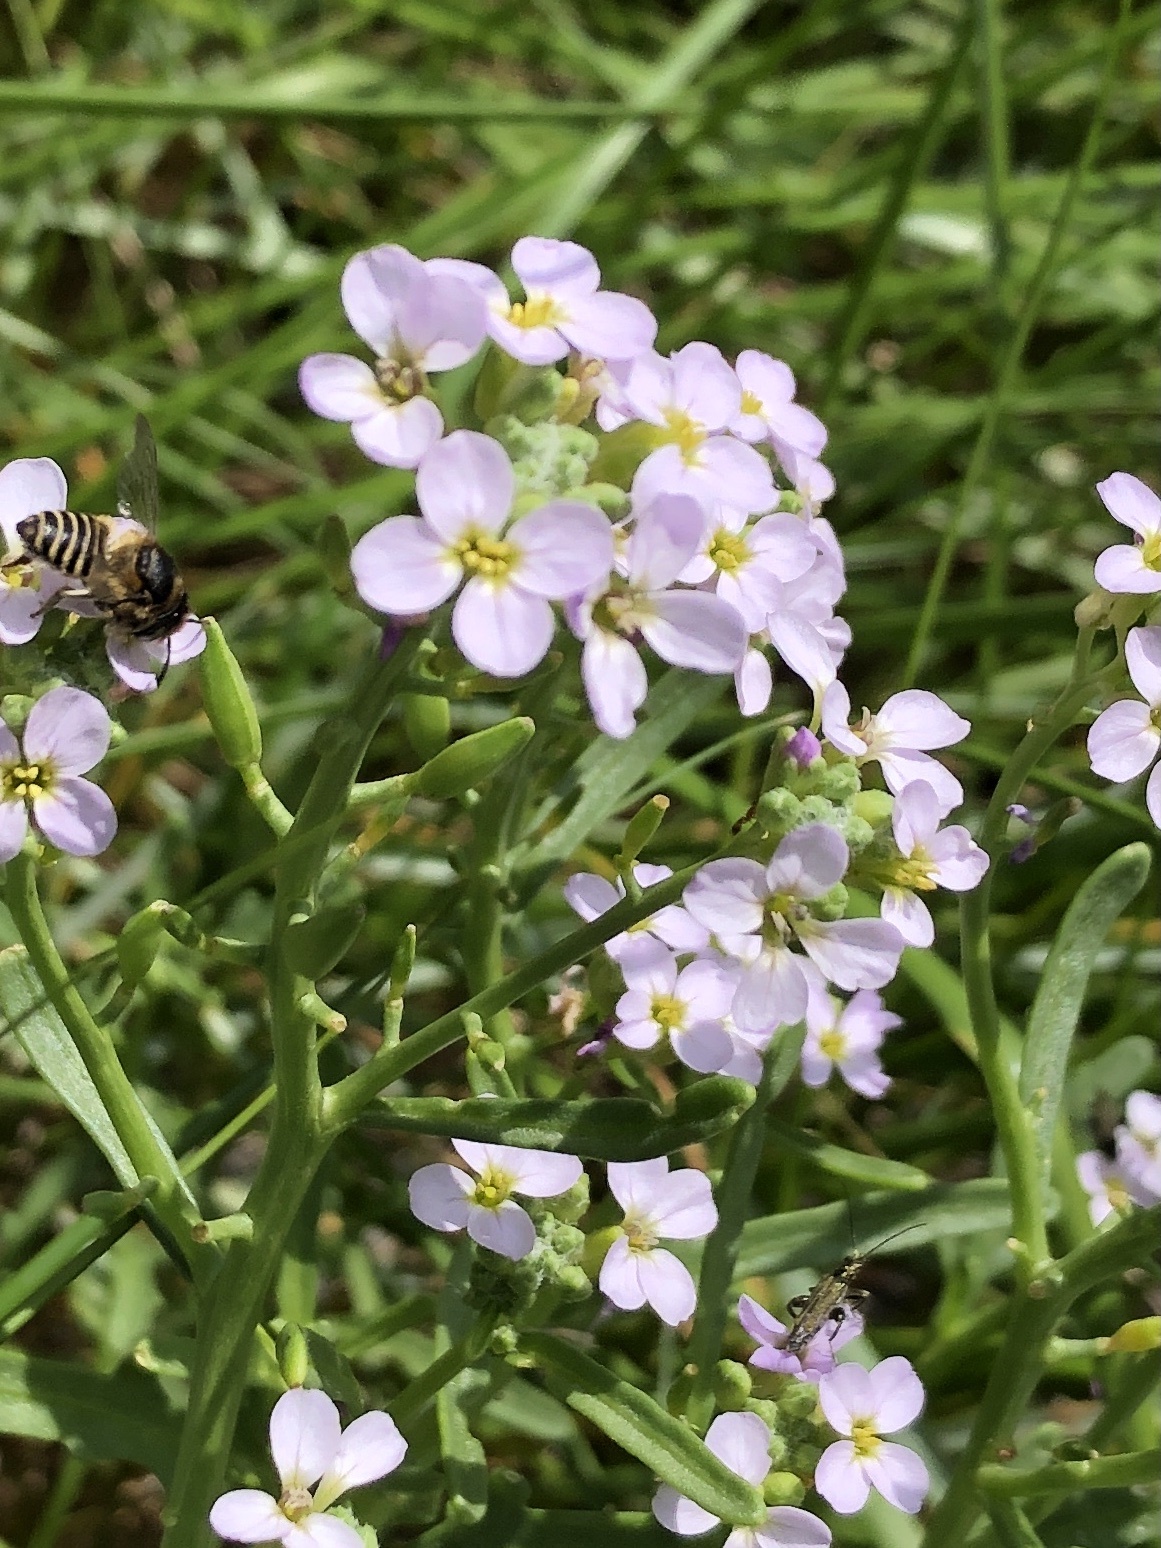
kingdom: Plantae
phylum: Tracheophyta
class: Magnoliopsida
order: Brassicales
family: Brassicaceae
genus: Cakile
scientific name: Cakile maritima
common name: Sea rocket
